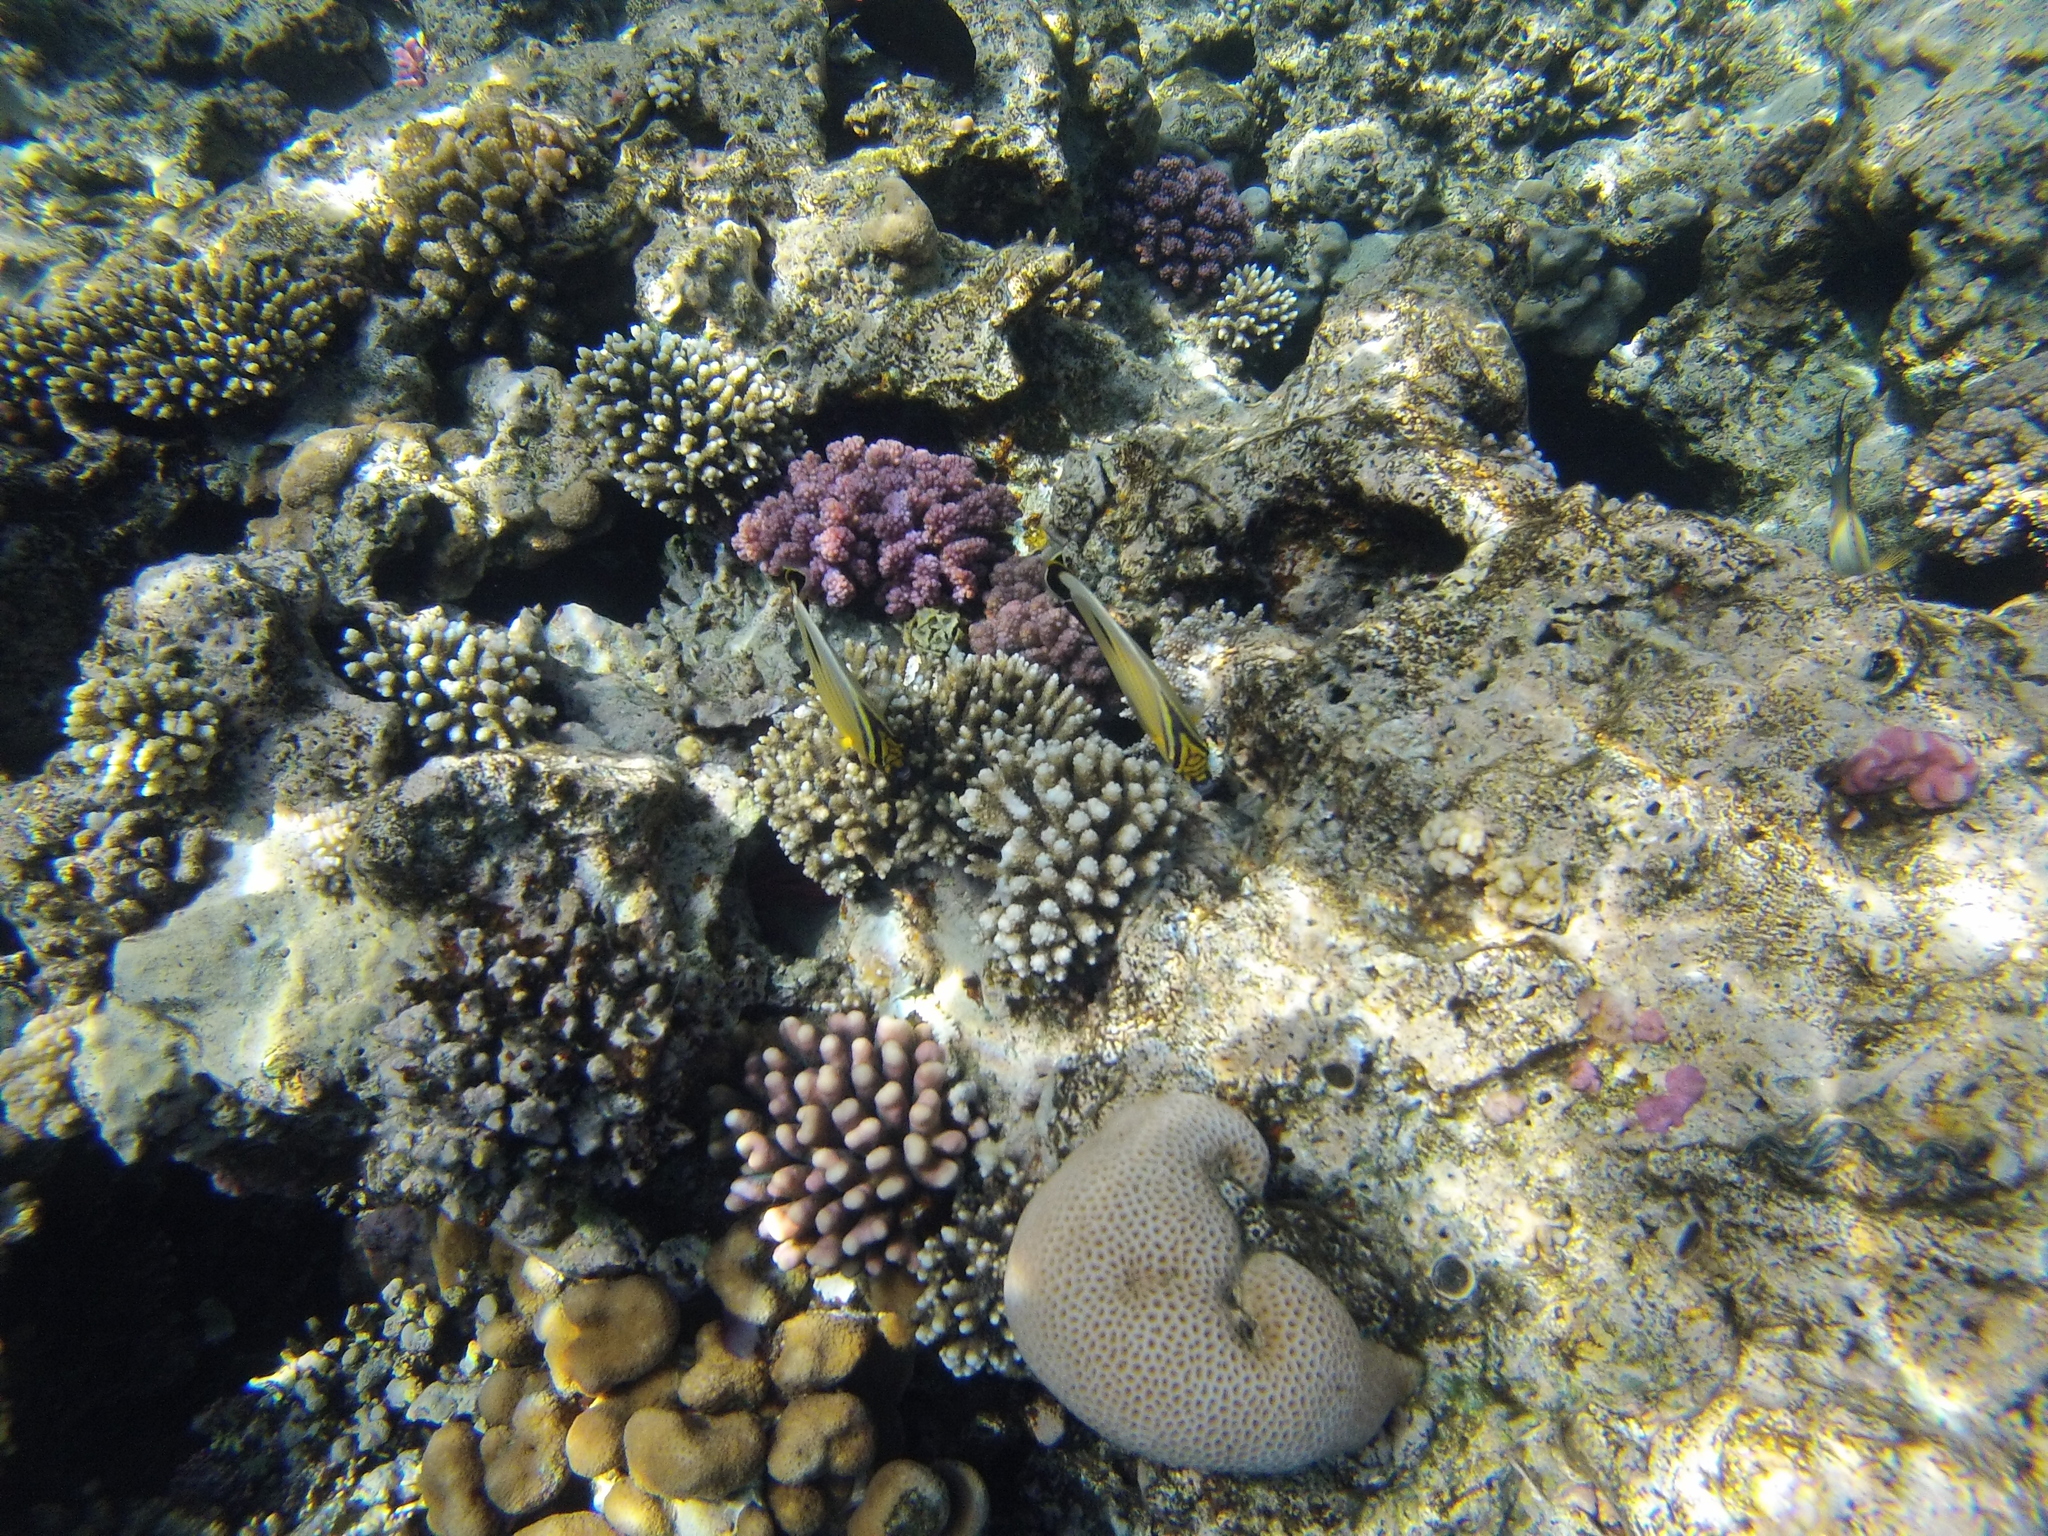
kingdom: Animalia
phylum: Chordata
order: Perciformes
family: Chaetodontidae
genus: Chaetodon
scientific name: Chaetodon austriacus
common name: Exquisite butterflyfish
